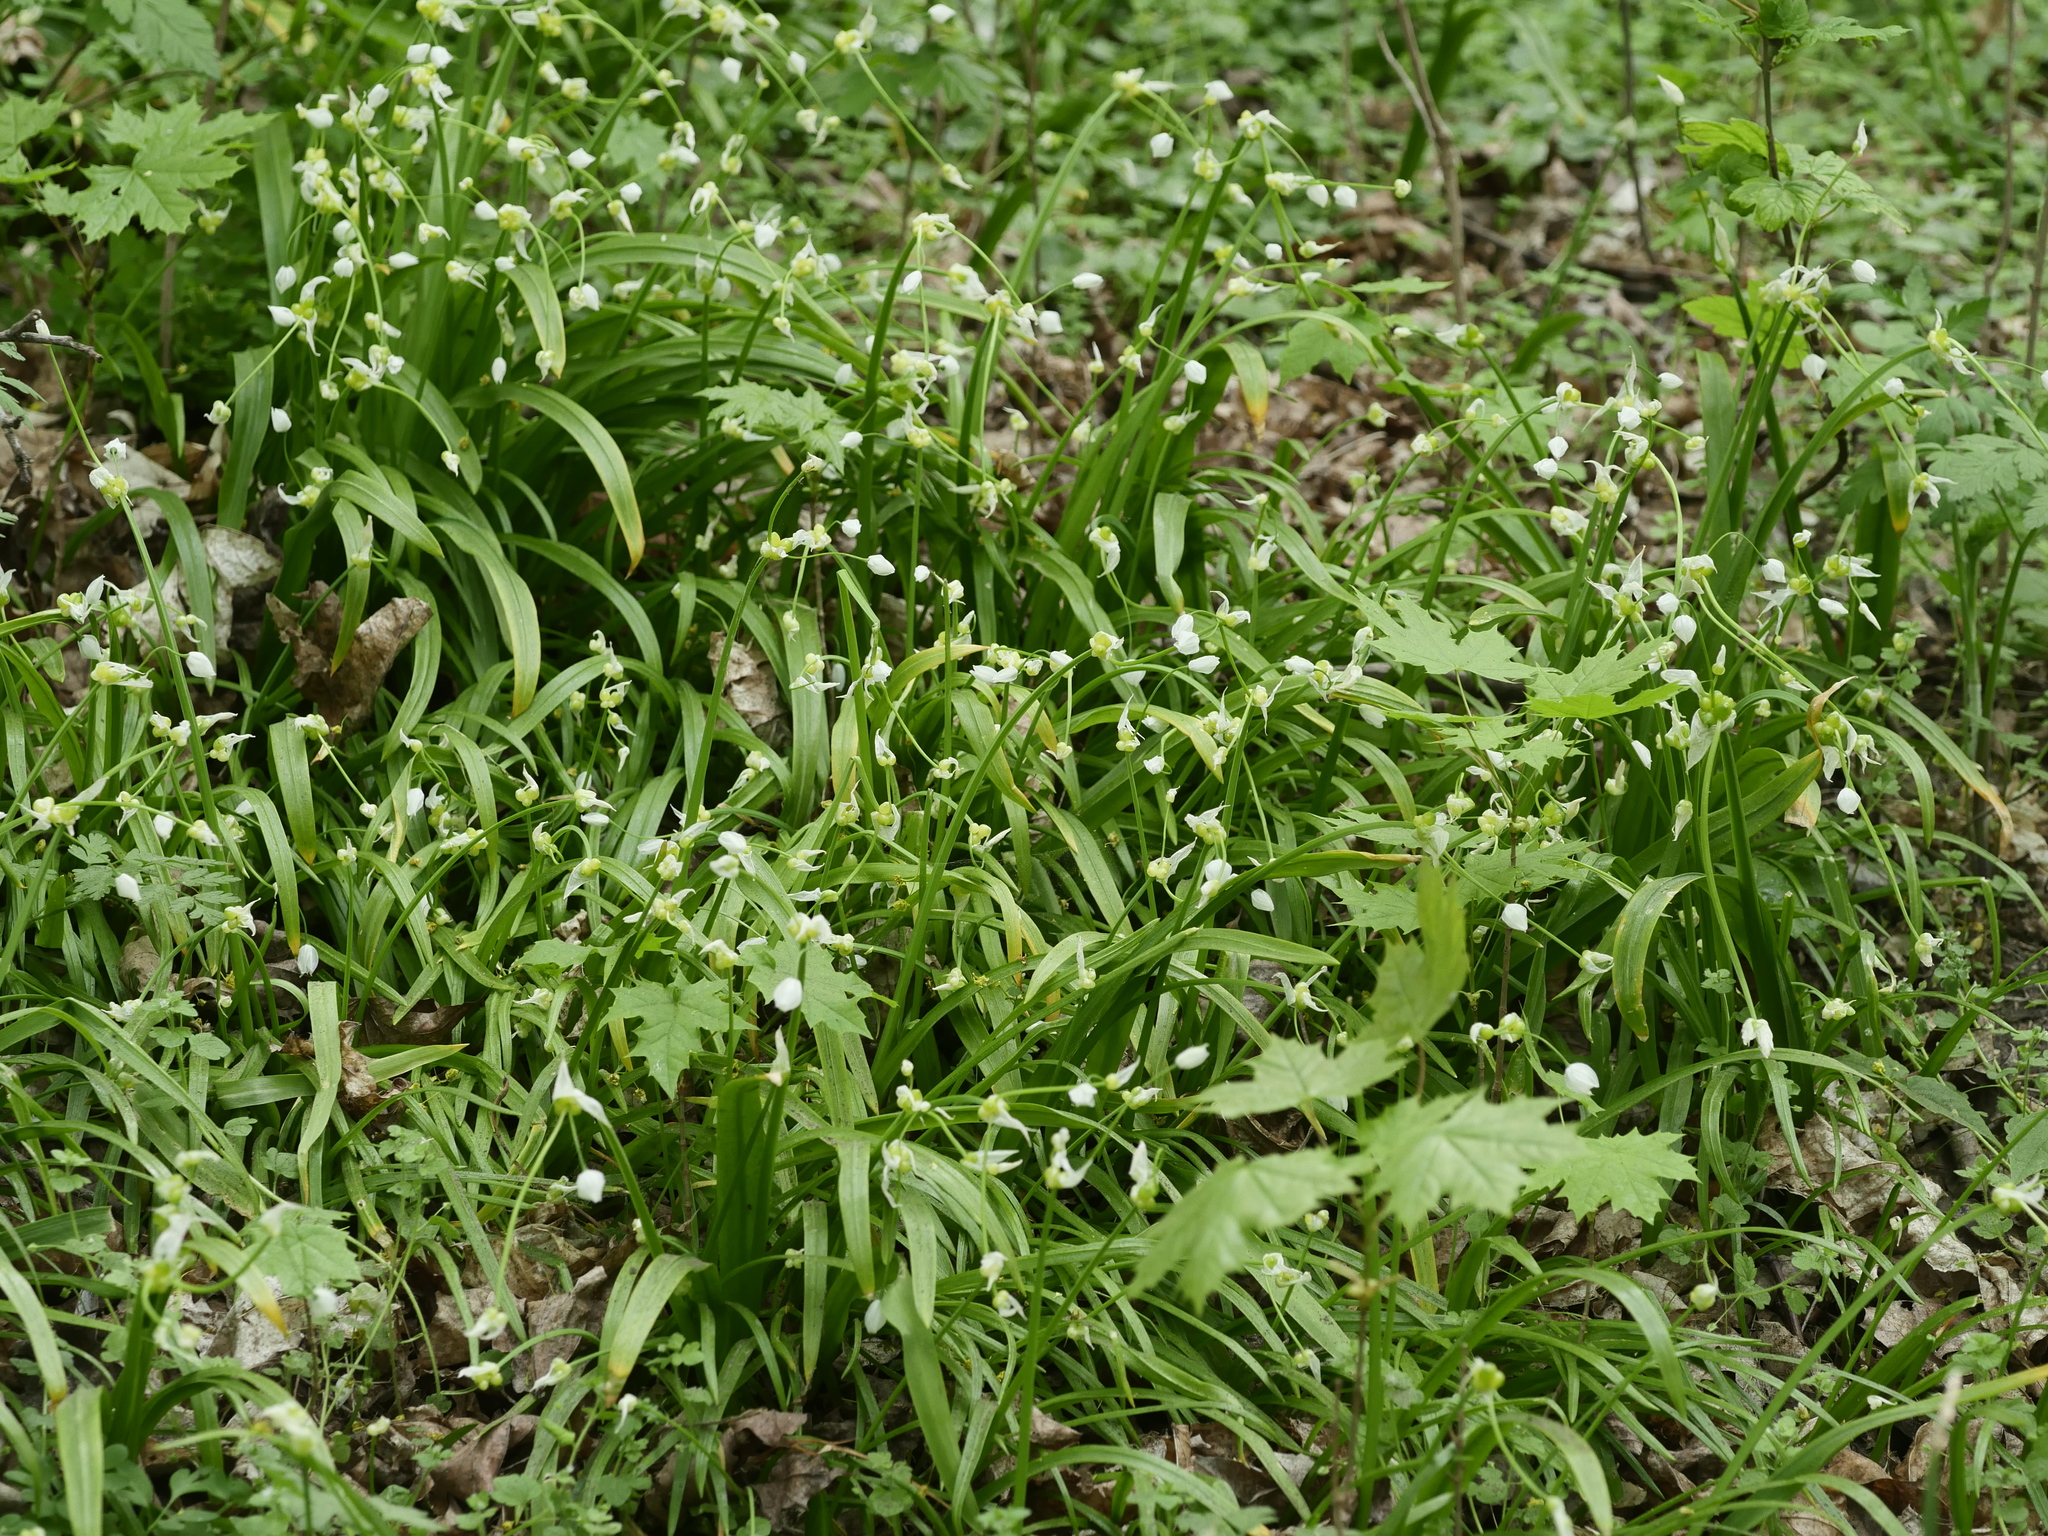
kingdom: Plantae
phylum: Tracheophyta
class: Liliopsida
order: Asparagales
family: Amaryllidaceae
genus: Allium
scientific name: Allium paradoxum
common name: Few-flowered garlic
